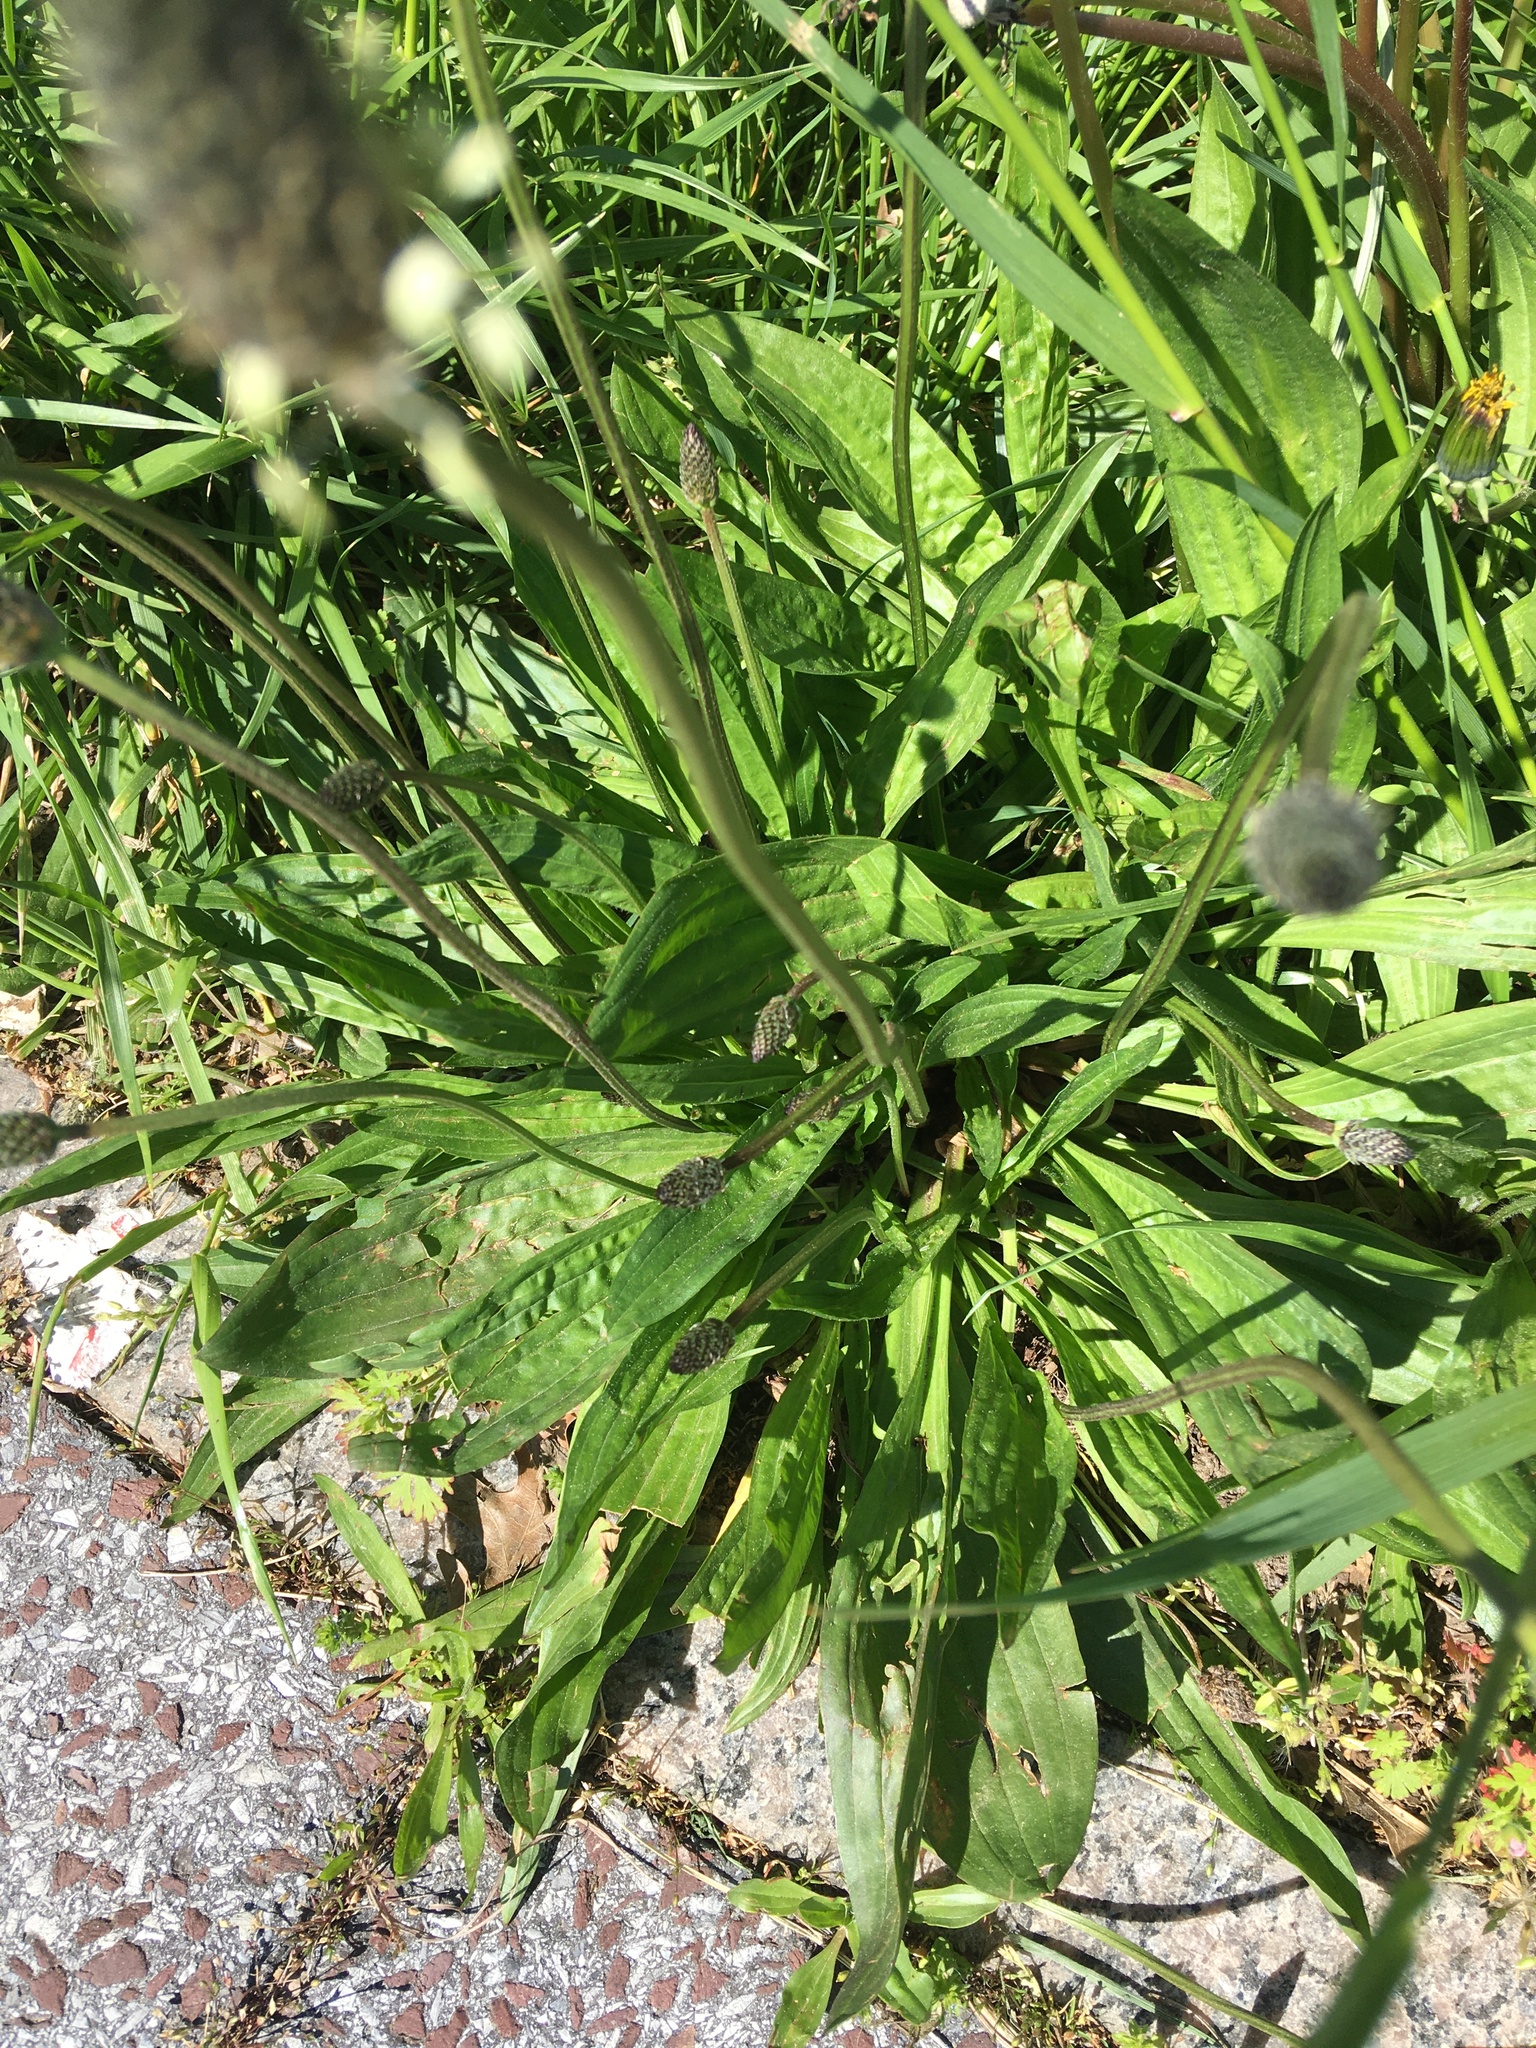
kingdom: Plantae
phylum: Tracheophyta
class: Magnoliopsida
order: Lamiales
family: Plantaginaceae
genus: Plantago
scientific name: Plantago lanceolata
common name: Ribwort plantain
